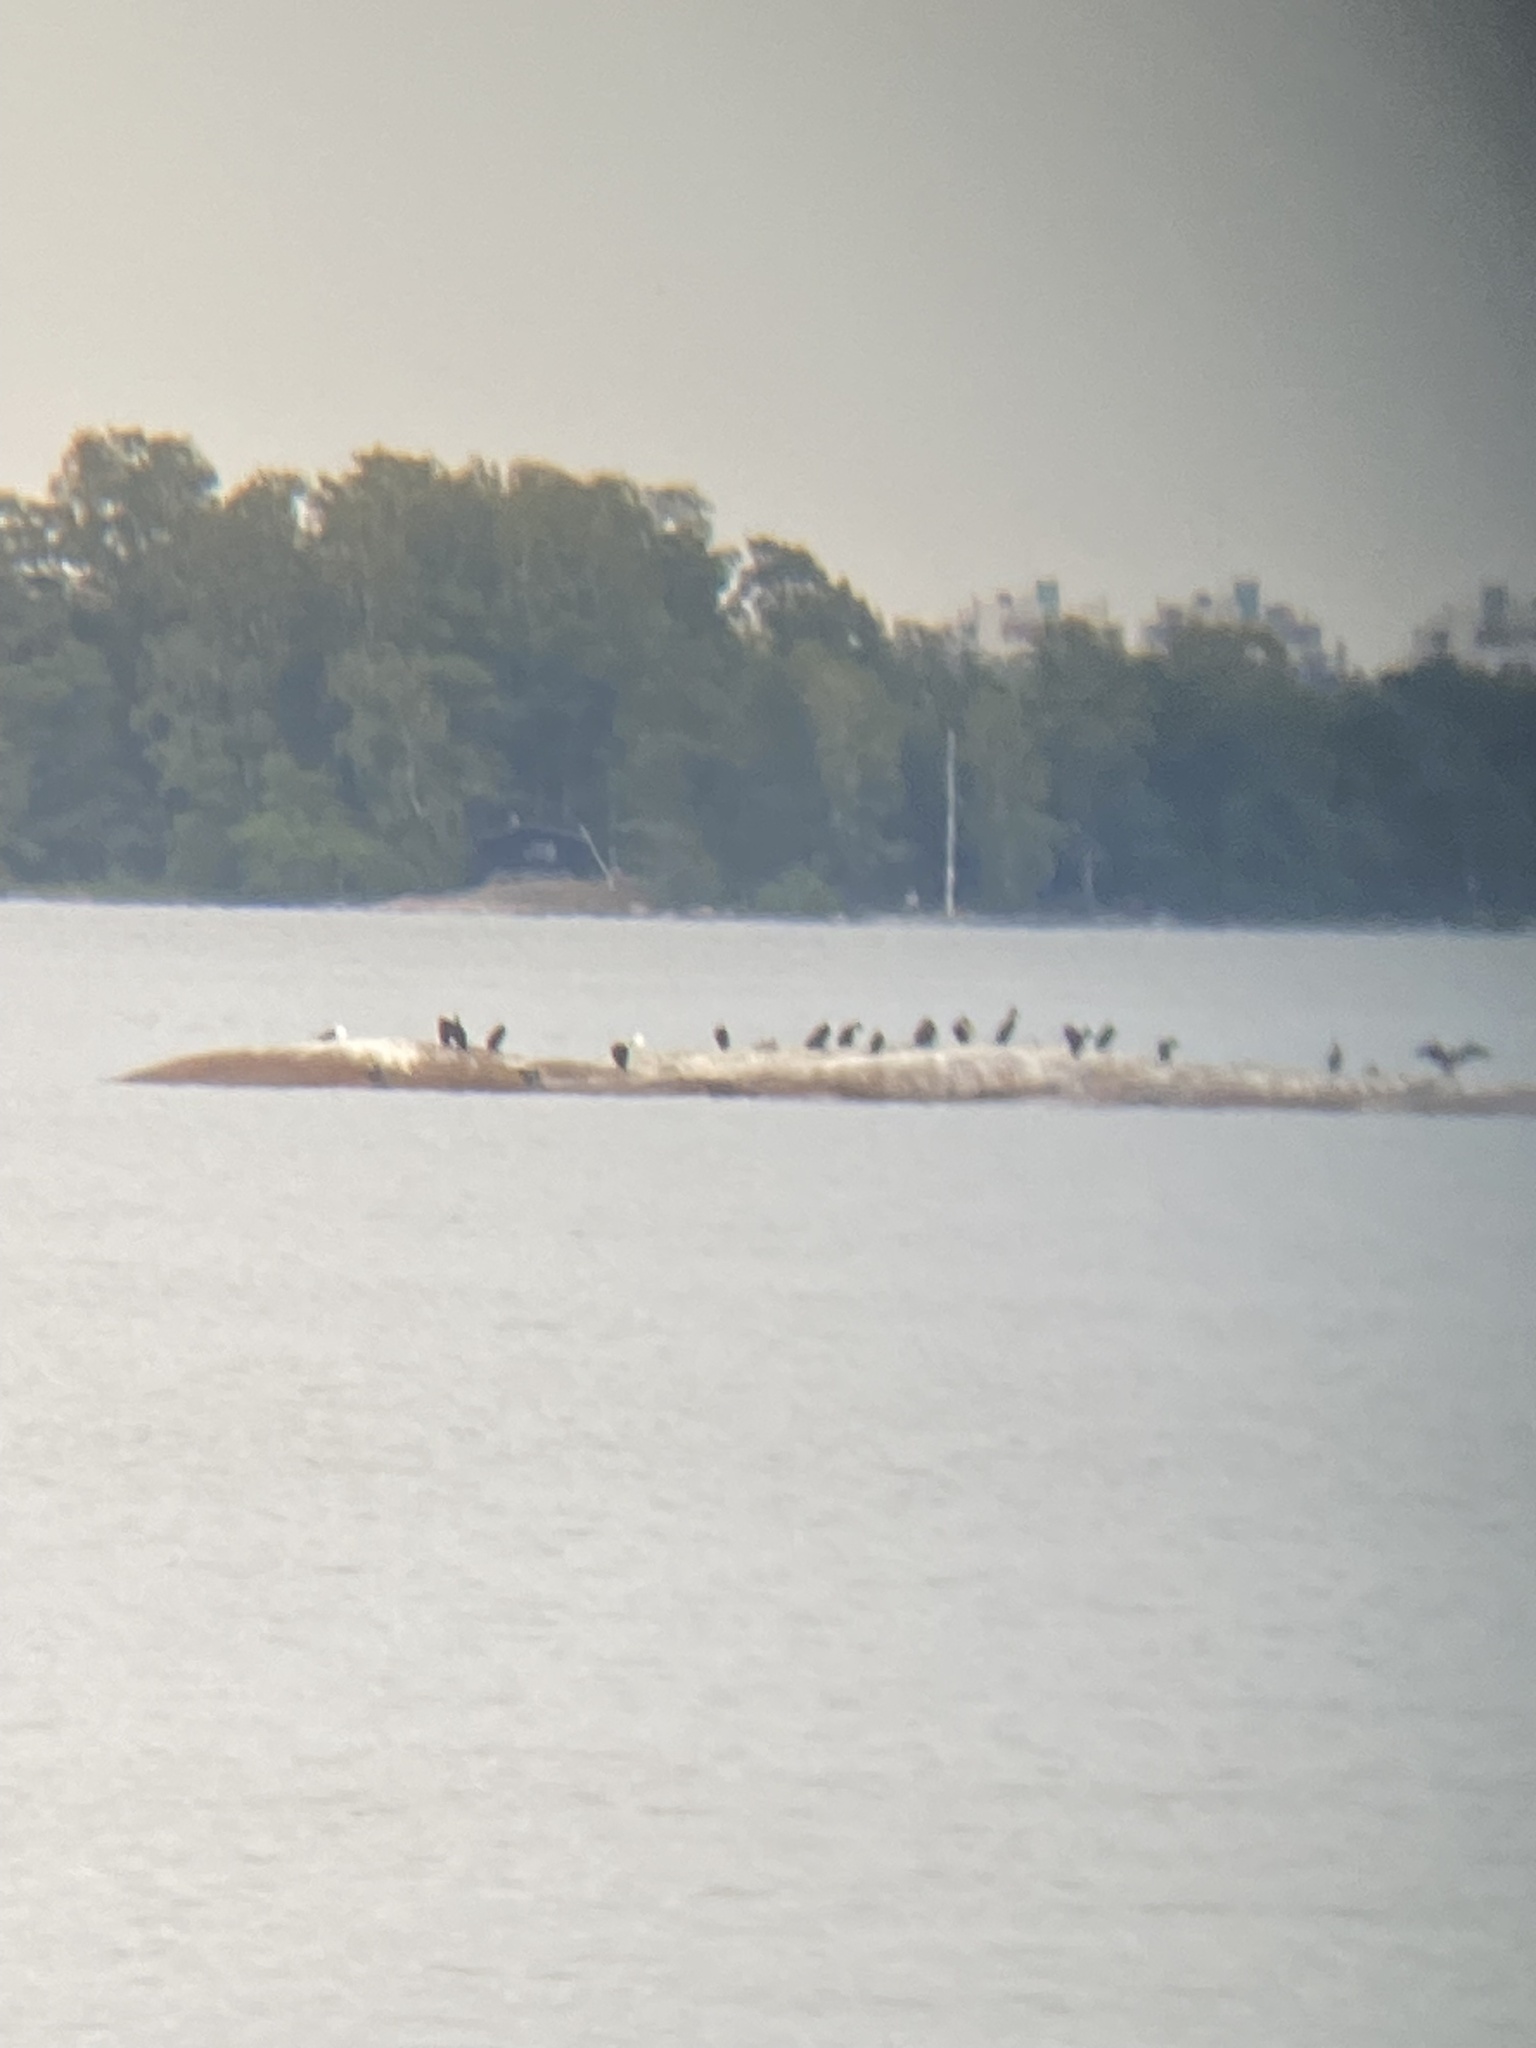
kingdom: Animalia
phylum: Chordata
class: Aves
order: Suliformes
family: Phalacrocoracidae
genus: Phalacrocorax
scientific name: Phalacrocorax carbo
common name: Great cormorant
